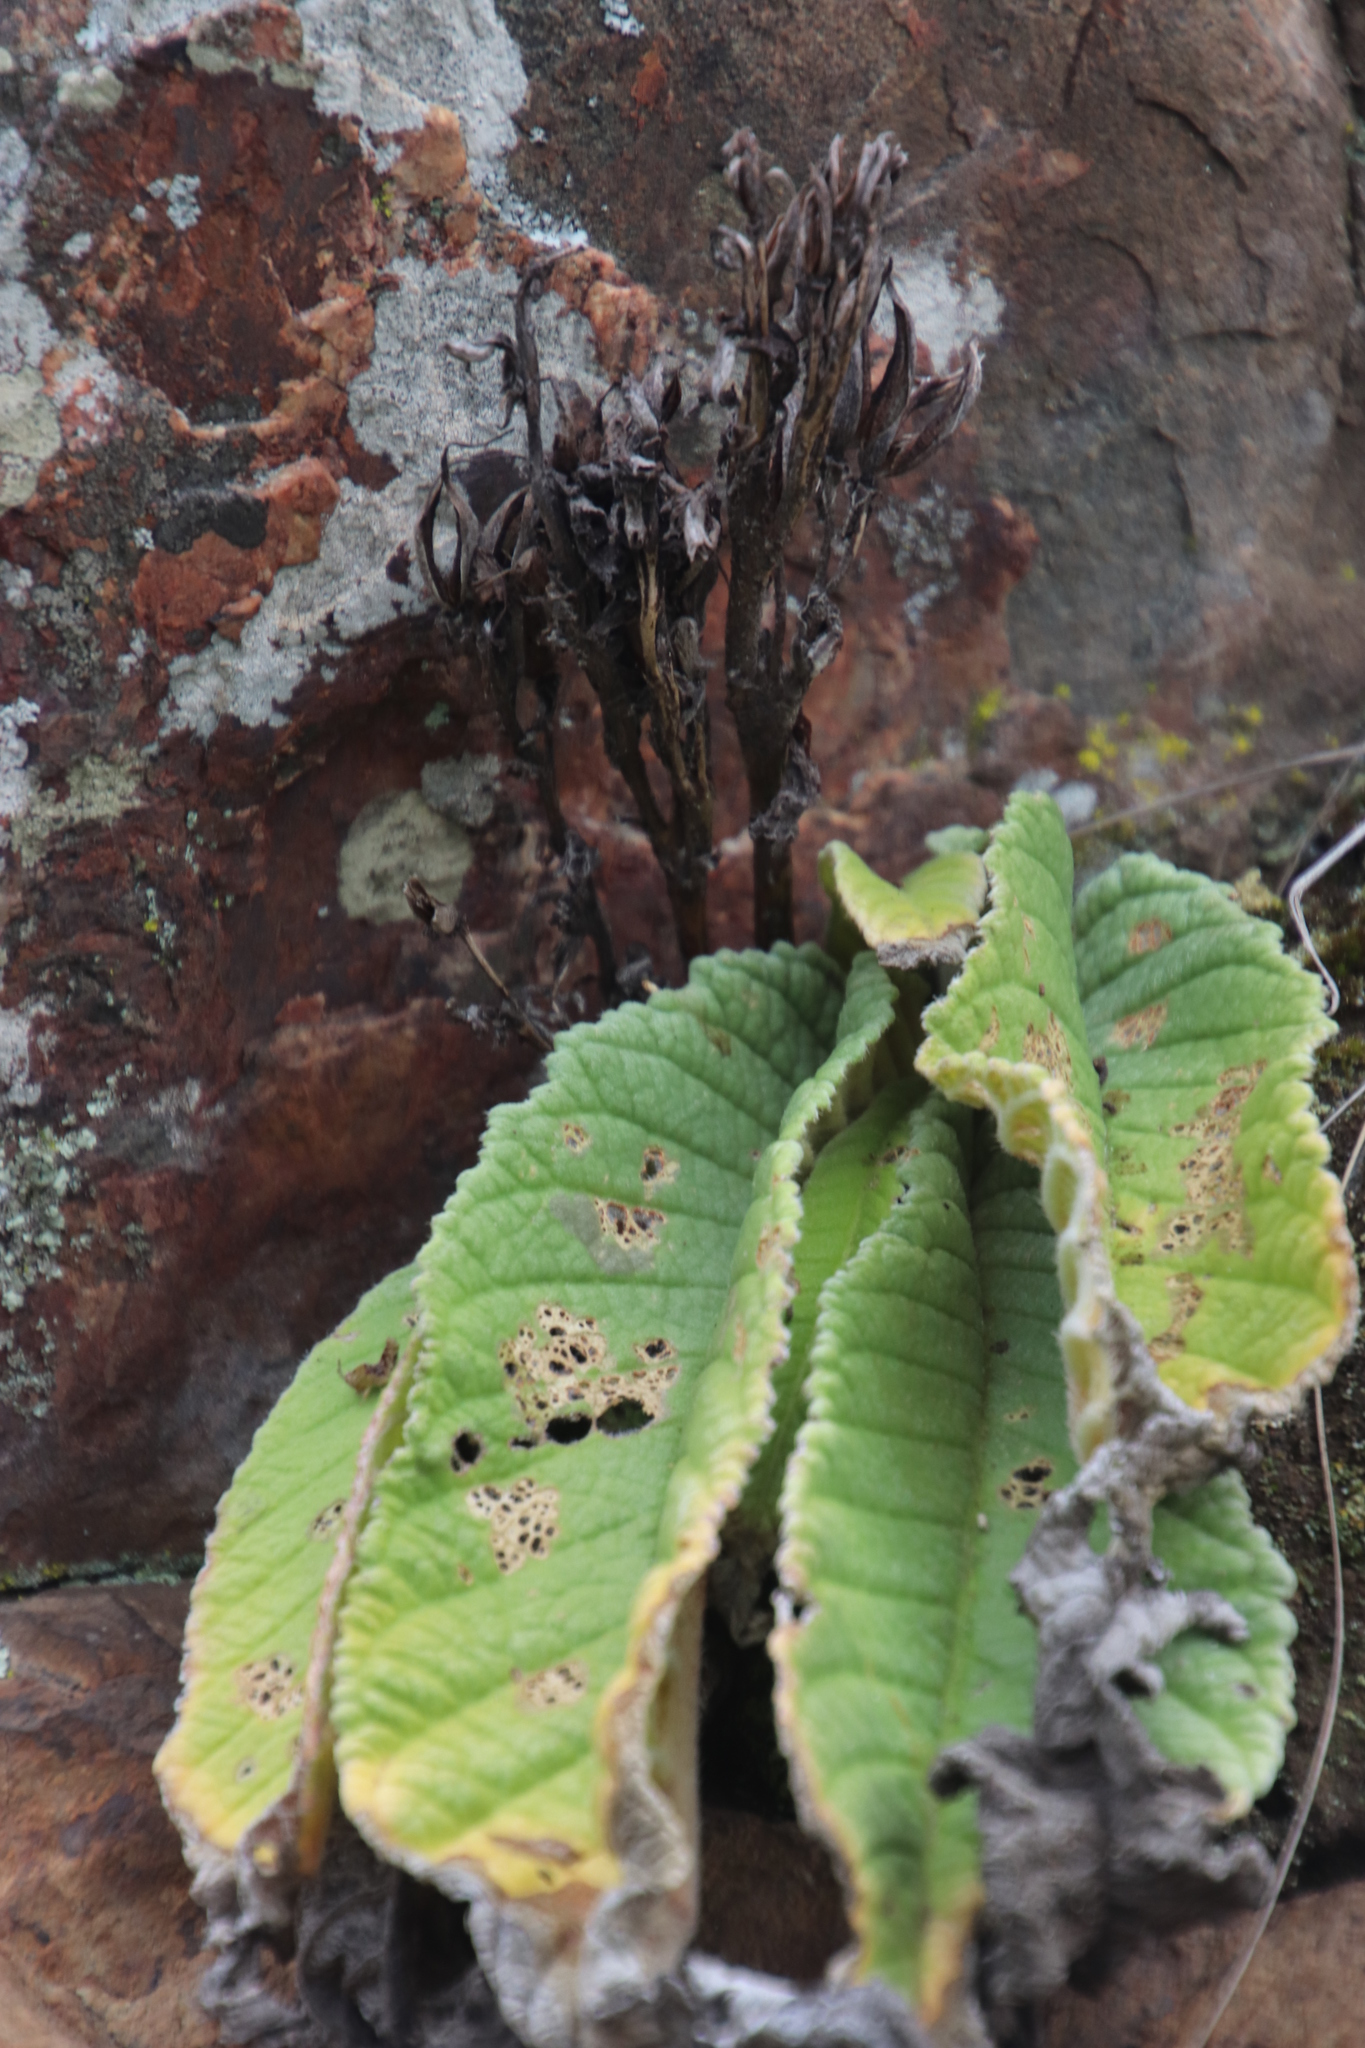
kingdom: Plantae
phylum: Tracheophyta
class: Magnoliopsida
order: Lamiales
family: Gesneriaceae
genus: Streptocarpus
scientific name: Streptocarpus dunnii
